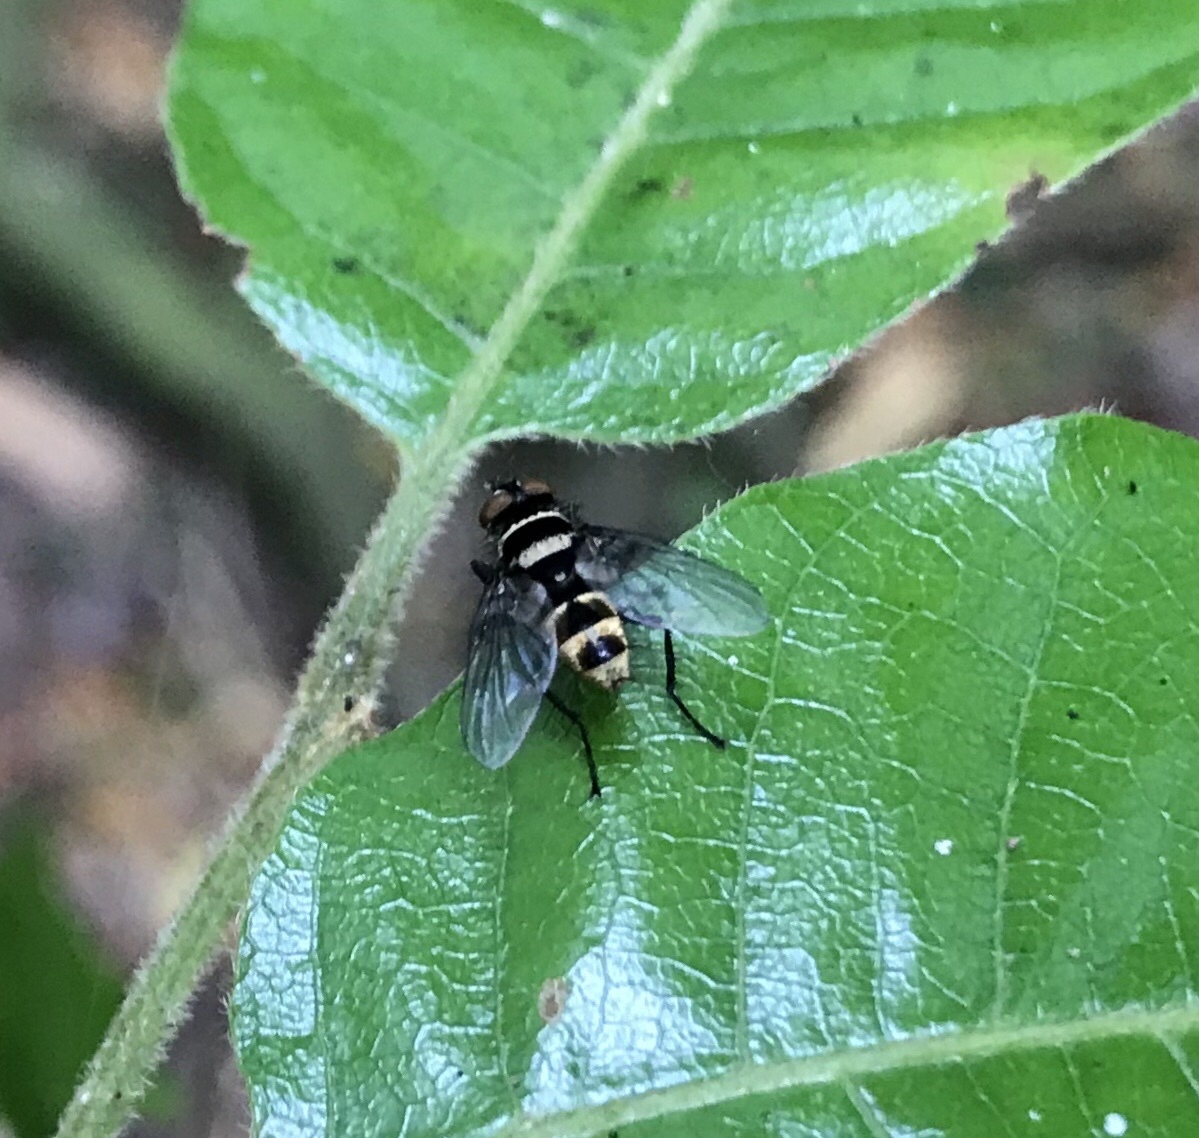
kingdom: Animalia
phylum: Arthropoda
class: Insecta
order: Diptera
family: Tachinidae
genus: Trigonospila
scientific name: Trigonospila brevifacies
